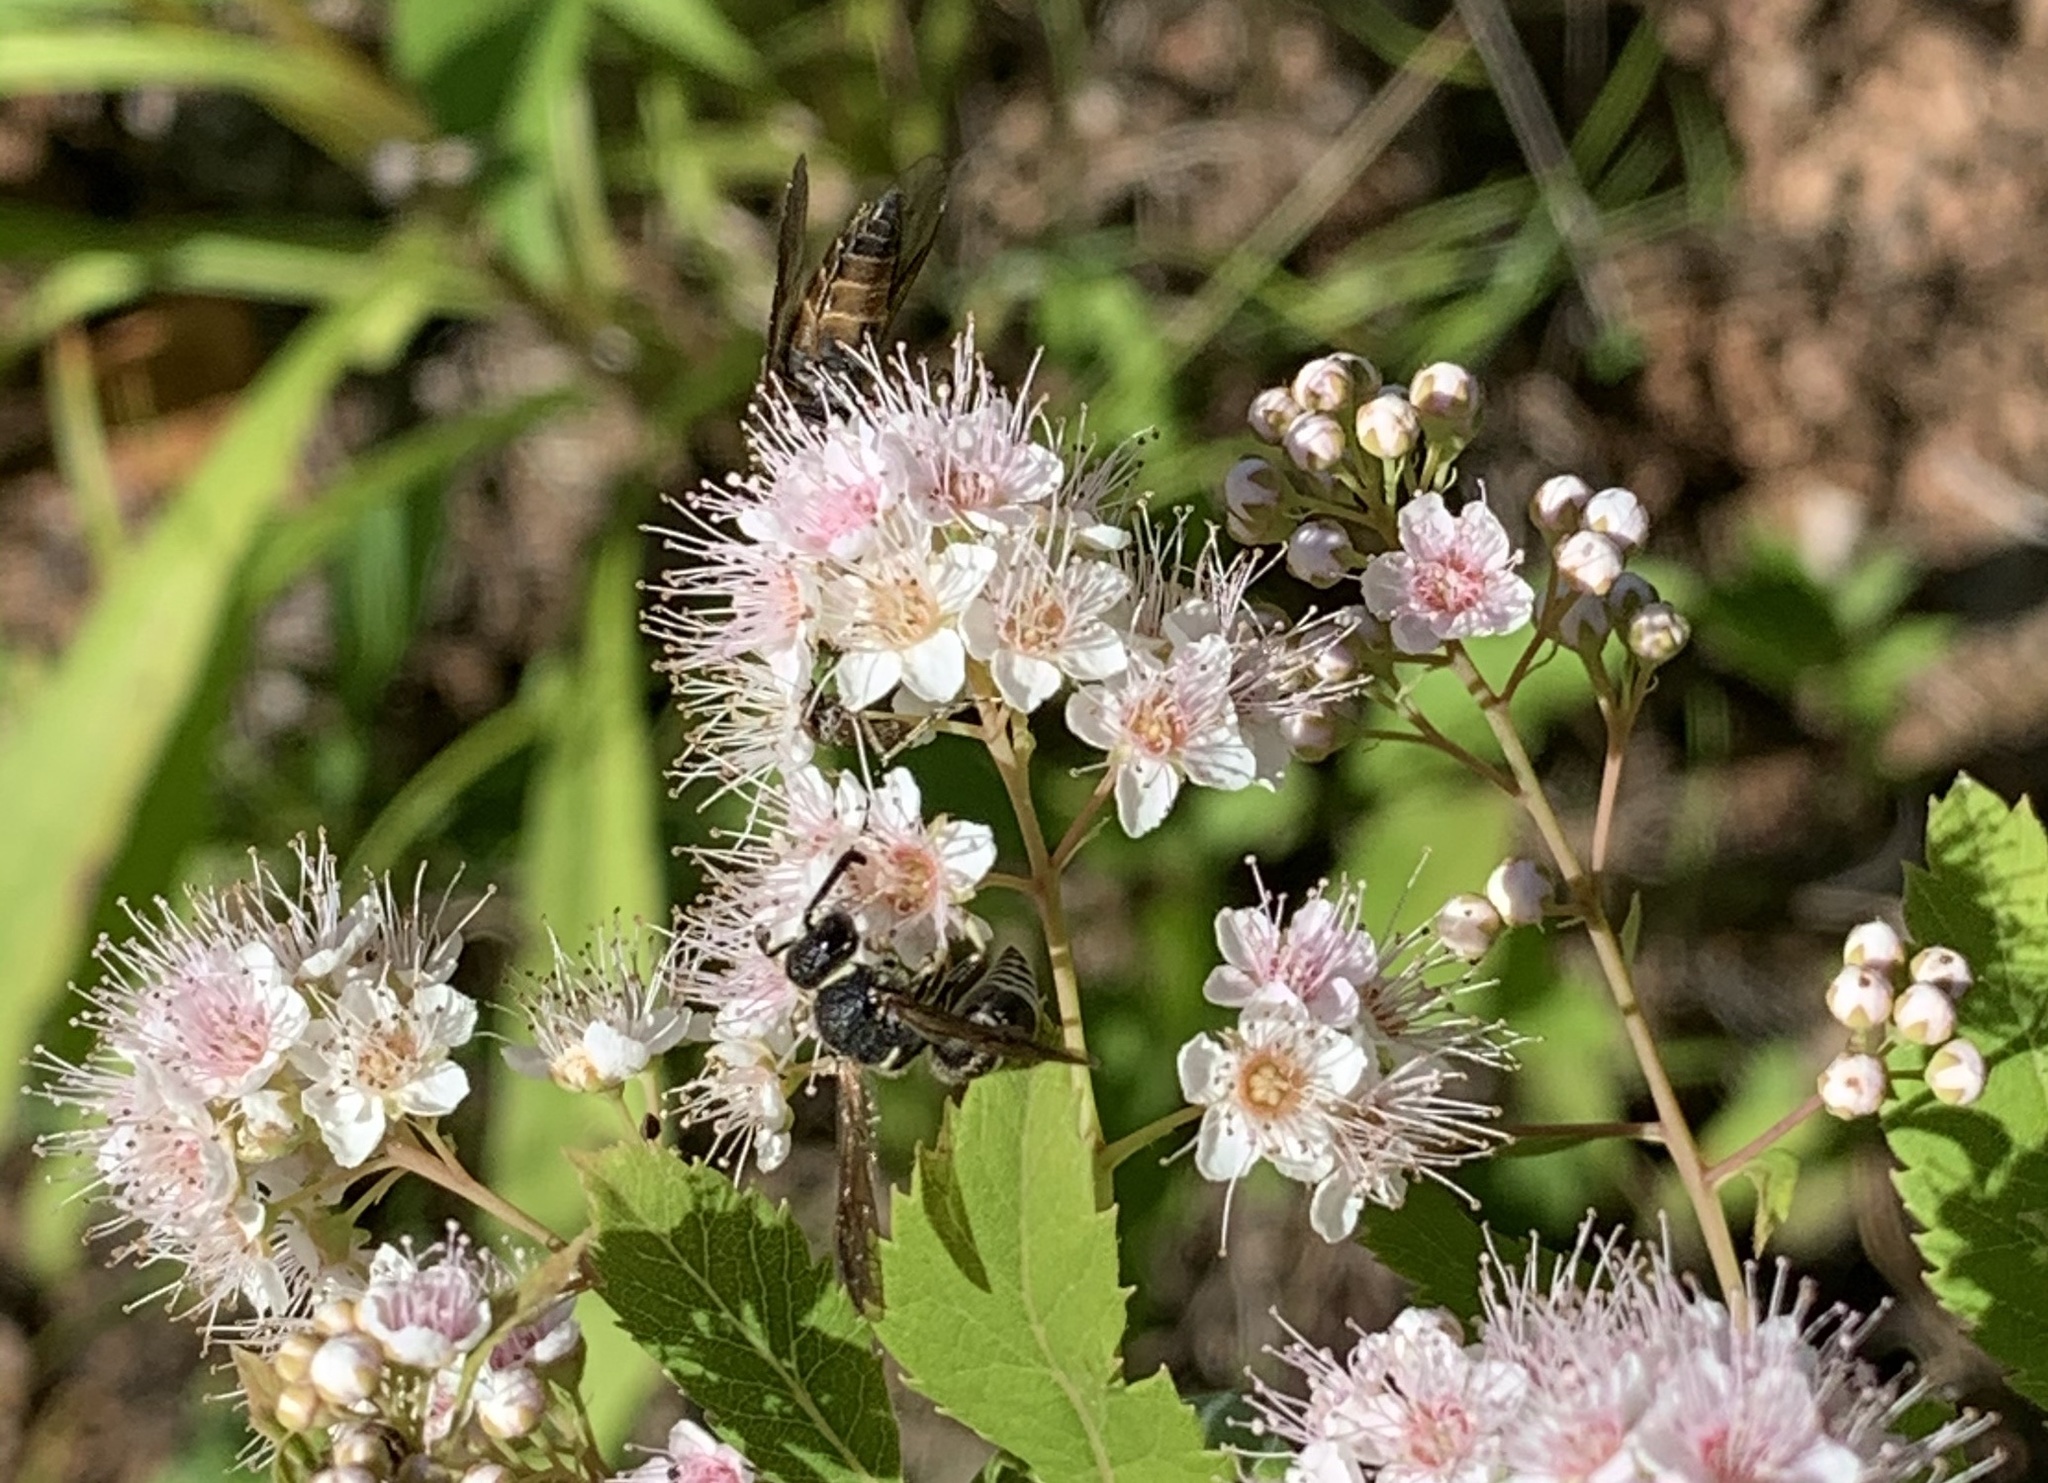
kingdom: Animalia
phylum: Arthropoda
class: Insecta
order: Hymenoptera
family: Eumenidae
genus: Euodynerus
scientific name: Euodynerus
